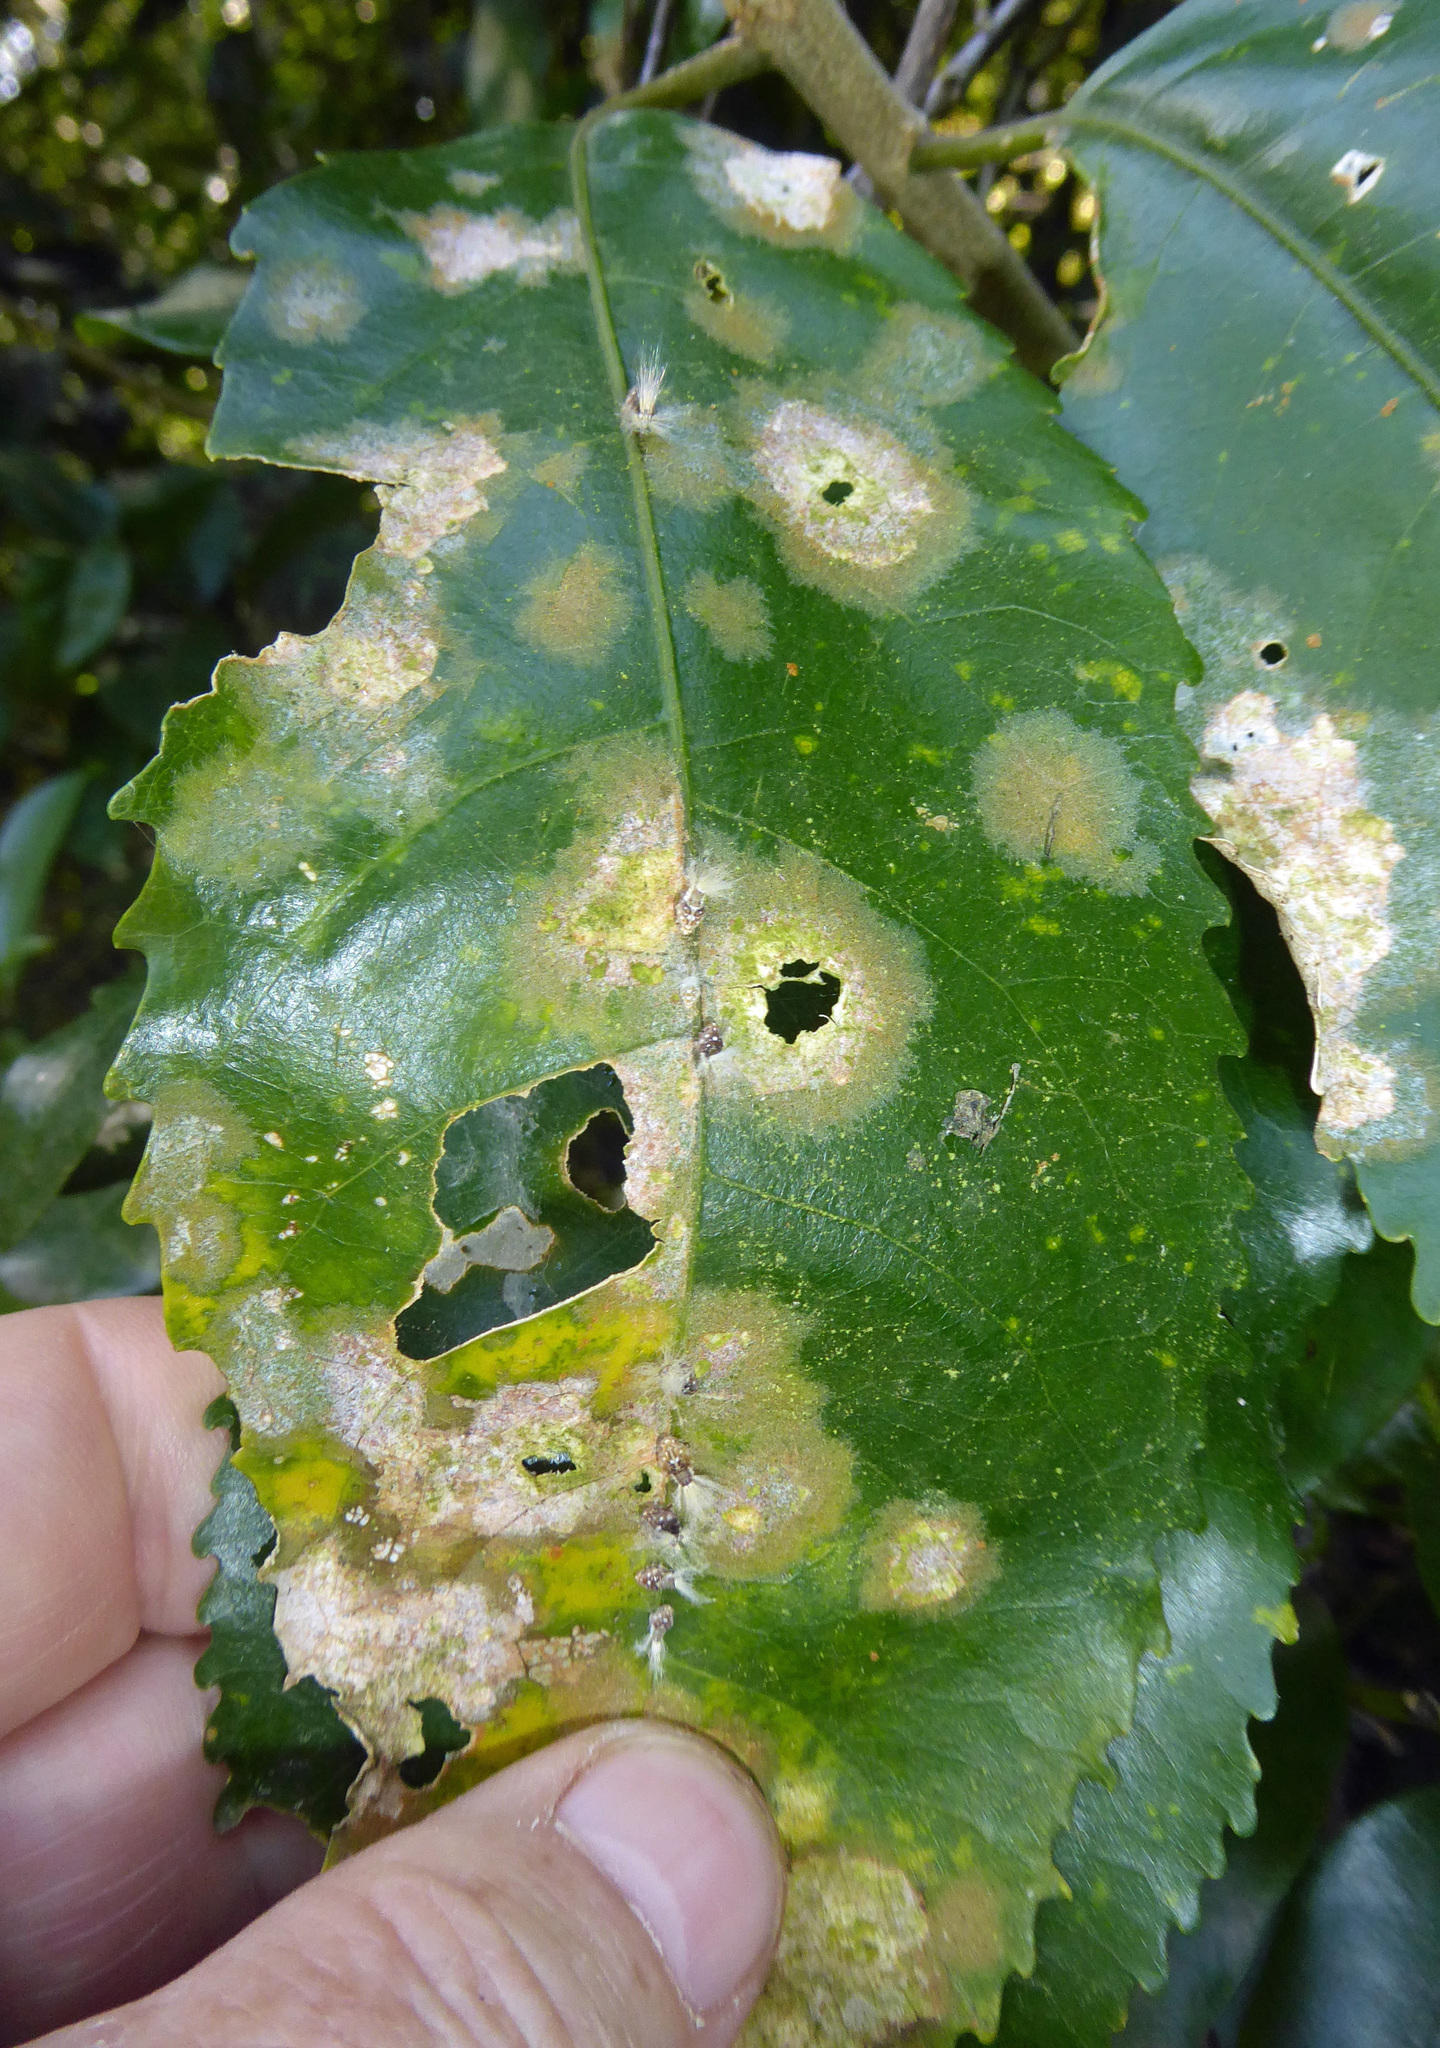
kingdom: Plantae
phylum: Chlorophyta
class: Ulvophyceae
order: Trentepohliales
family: Trentepohliaceae
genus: Cephaleuros
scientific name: Cephaleuros
